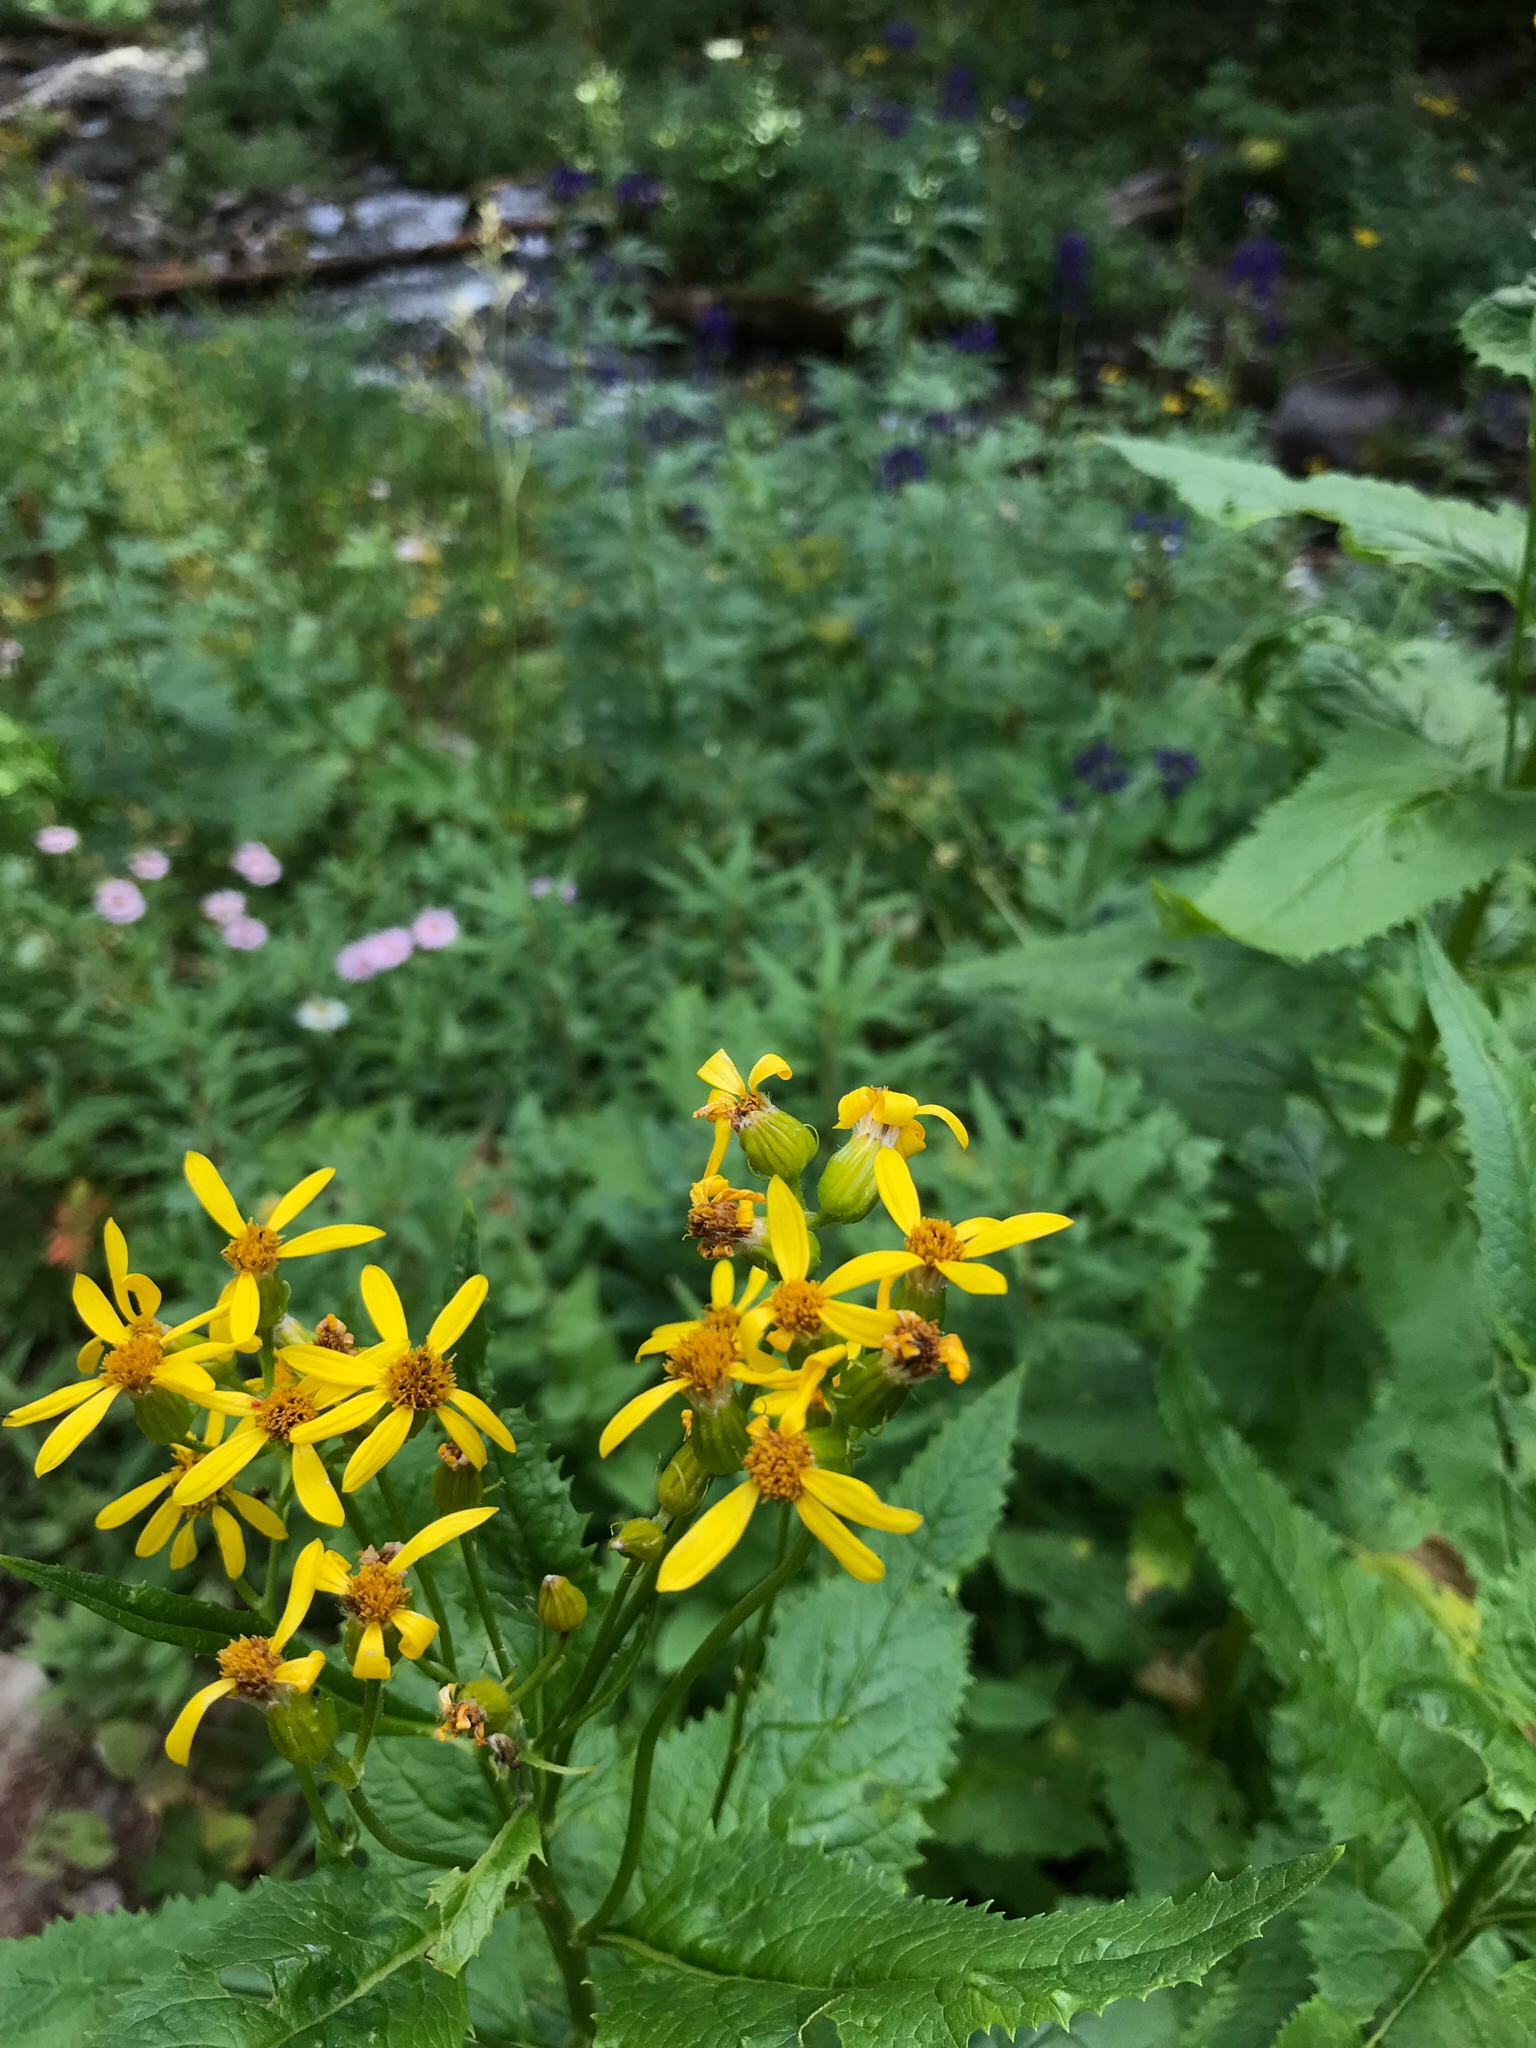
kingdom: Plantae
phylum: Tracheophyta
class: Magnoliopsida
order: Asterales
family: Asteraceae
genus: Senecio
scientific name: Senecio triangularis
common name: Arrowleaf butterweed
